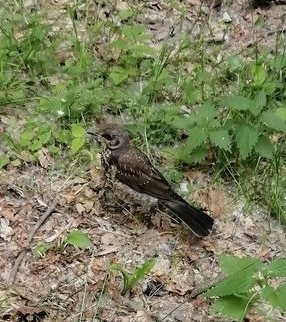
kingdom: Animalia
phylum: Chordata
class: Aves
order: Passeriformes
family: Turdidae
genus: Turdus
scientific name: Turdus pilaris
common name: Fieldfare
